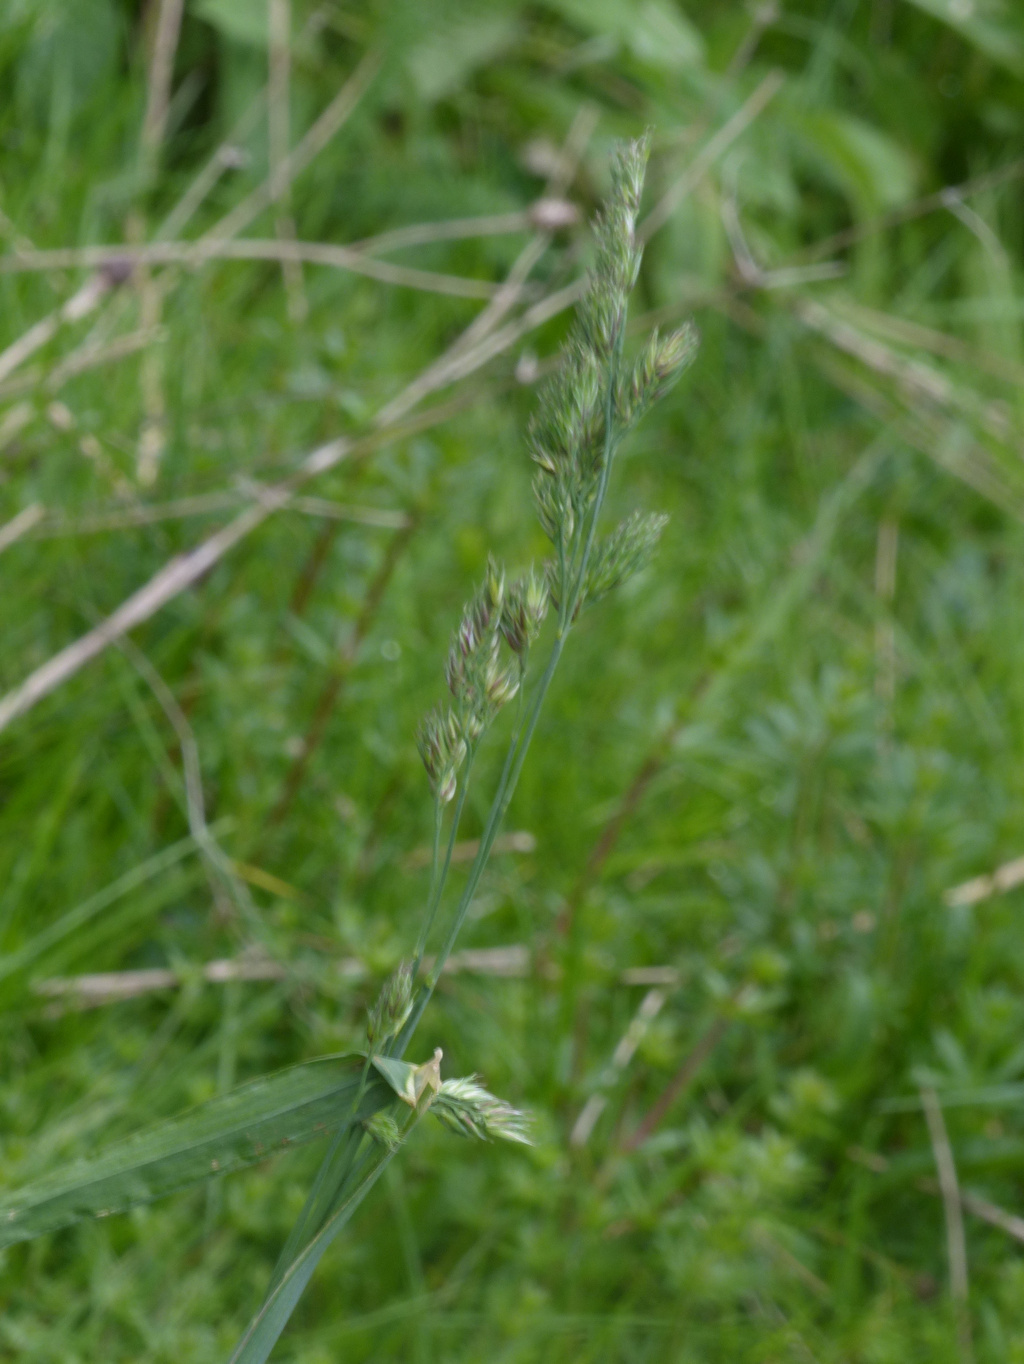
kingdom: Plantae
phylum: Tracheophyta
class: Liliopsida
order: Poales
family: Poaceae
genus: Dactylis
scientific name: Dactylis glomerata
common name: Orchardgrass
